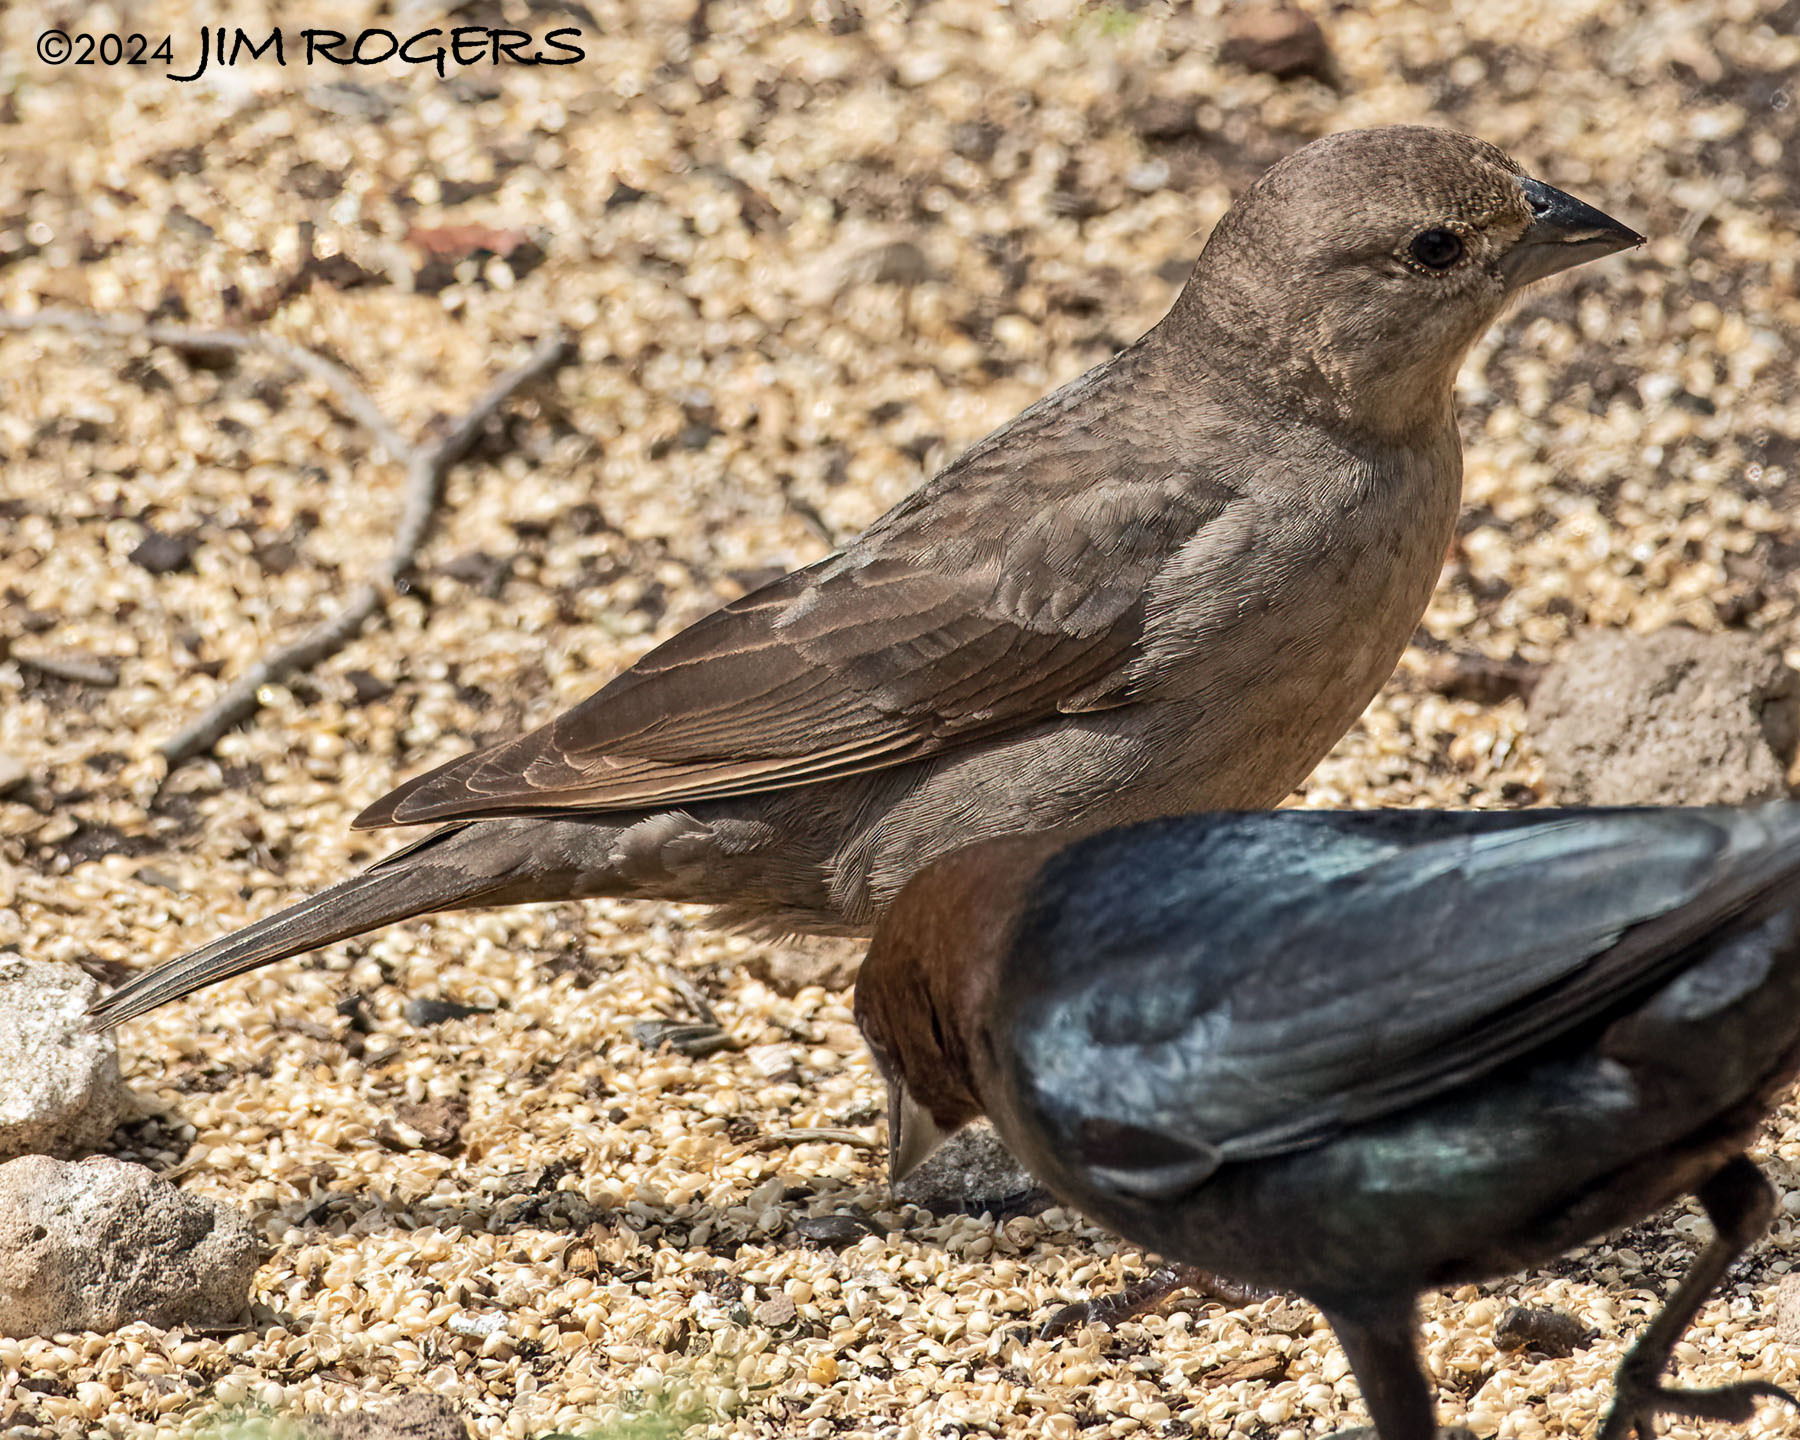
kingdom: Animalia
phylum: Chordata
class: Aves
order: Passeriformes
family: Icteridae
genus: Molothrus
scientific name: Molothrus ater
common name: Brown-headed cowbird
